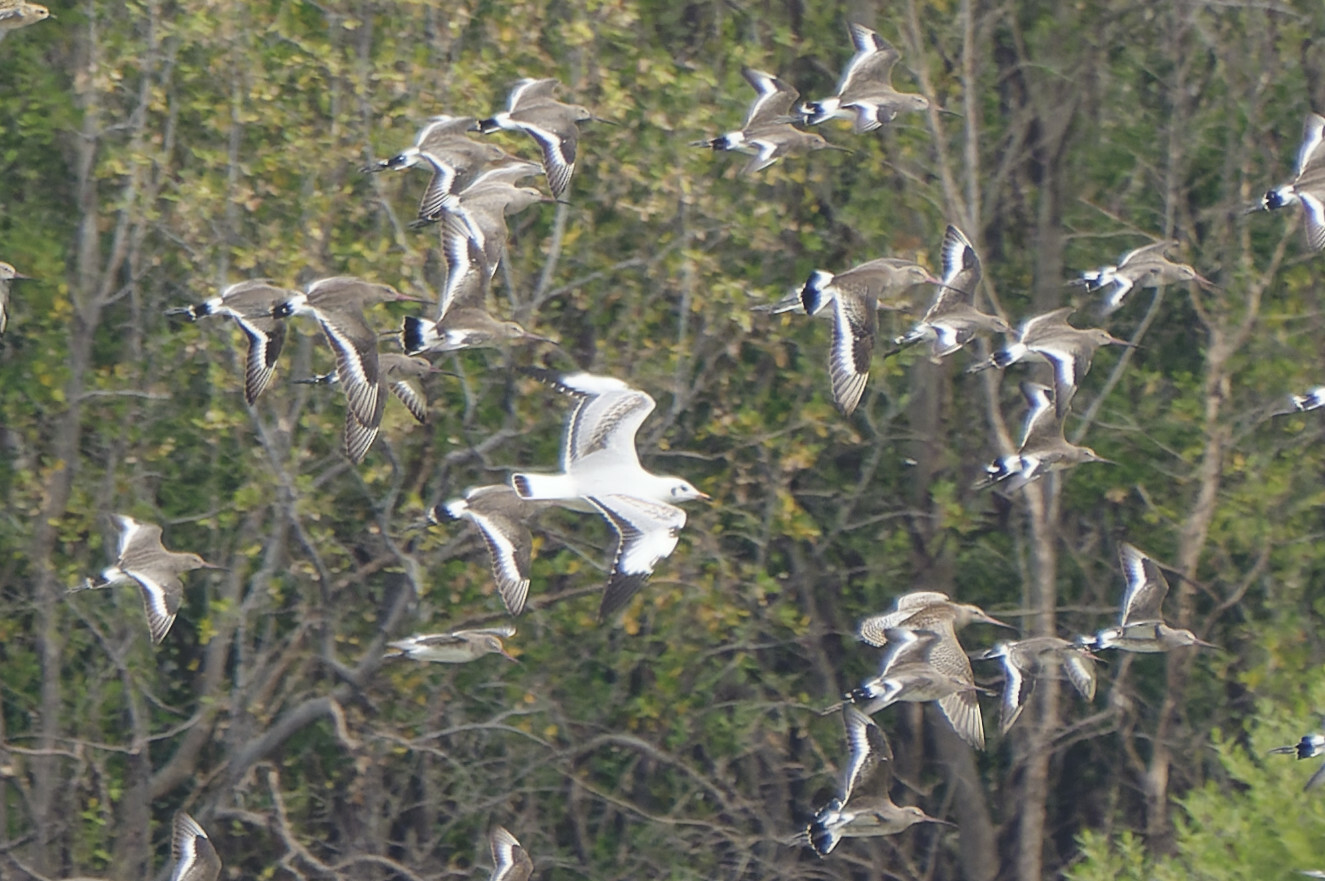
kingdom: Animalia
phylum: Chordata
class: Aves
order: Charadriiformes
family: Laridae
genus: Chroicocephalus
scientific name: Chroicocephalus brunnicephalus
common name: Brown-headed gull
